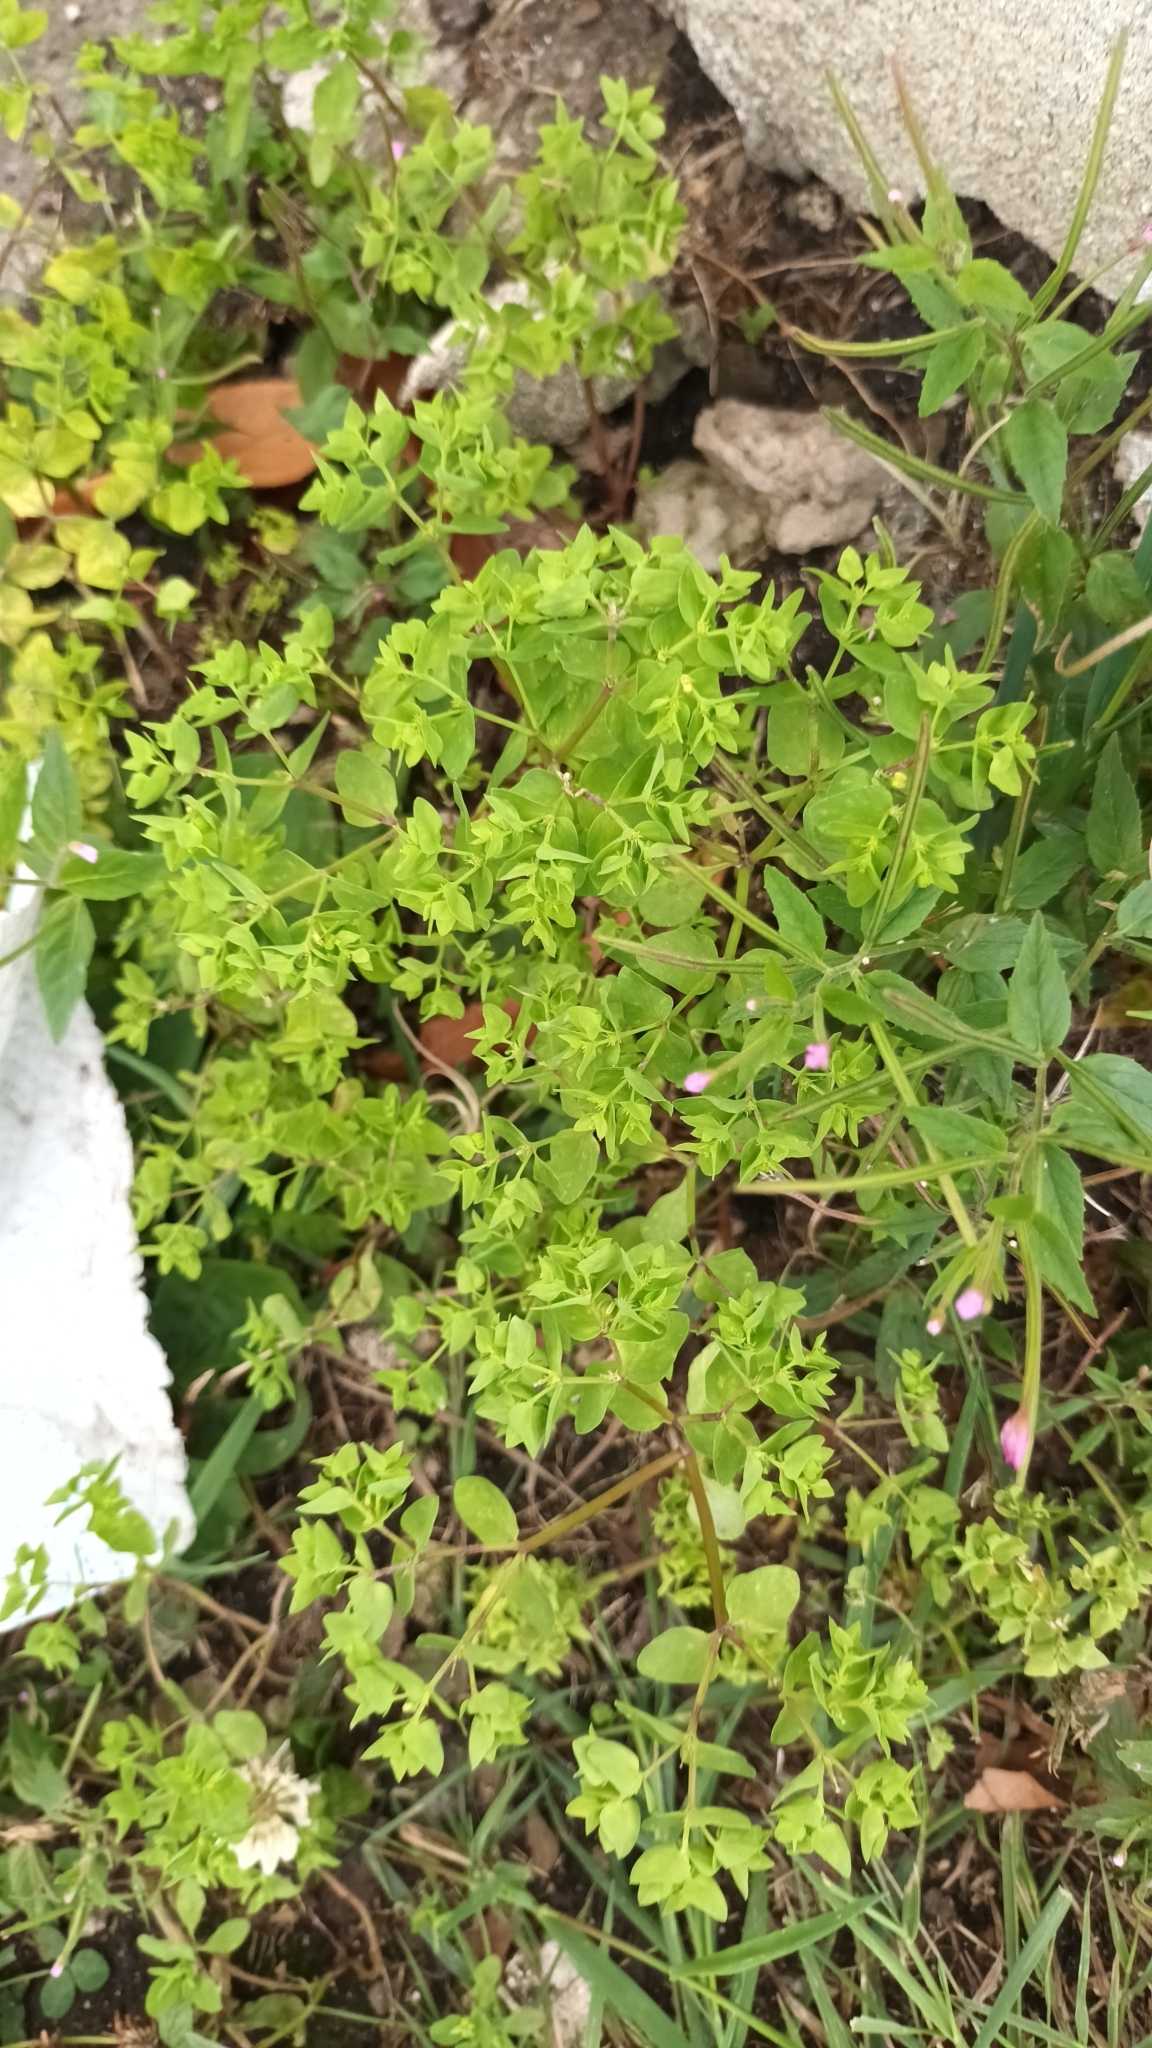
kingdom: Plantae
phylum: Tracheophyta
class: Magnoliopsida
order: Malpighiales
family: Euphorbiaceae
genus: Euphorbia
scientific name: Euphorbia peplus
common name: Petty spurge
